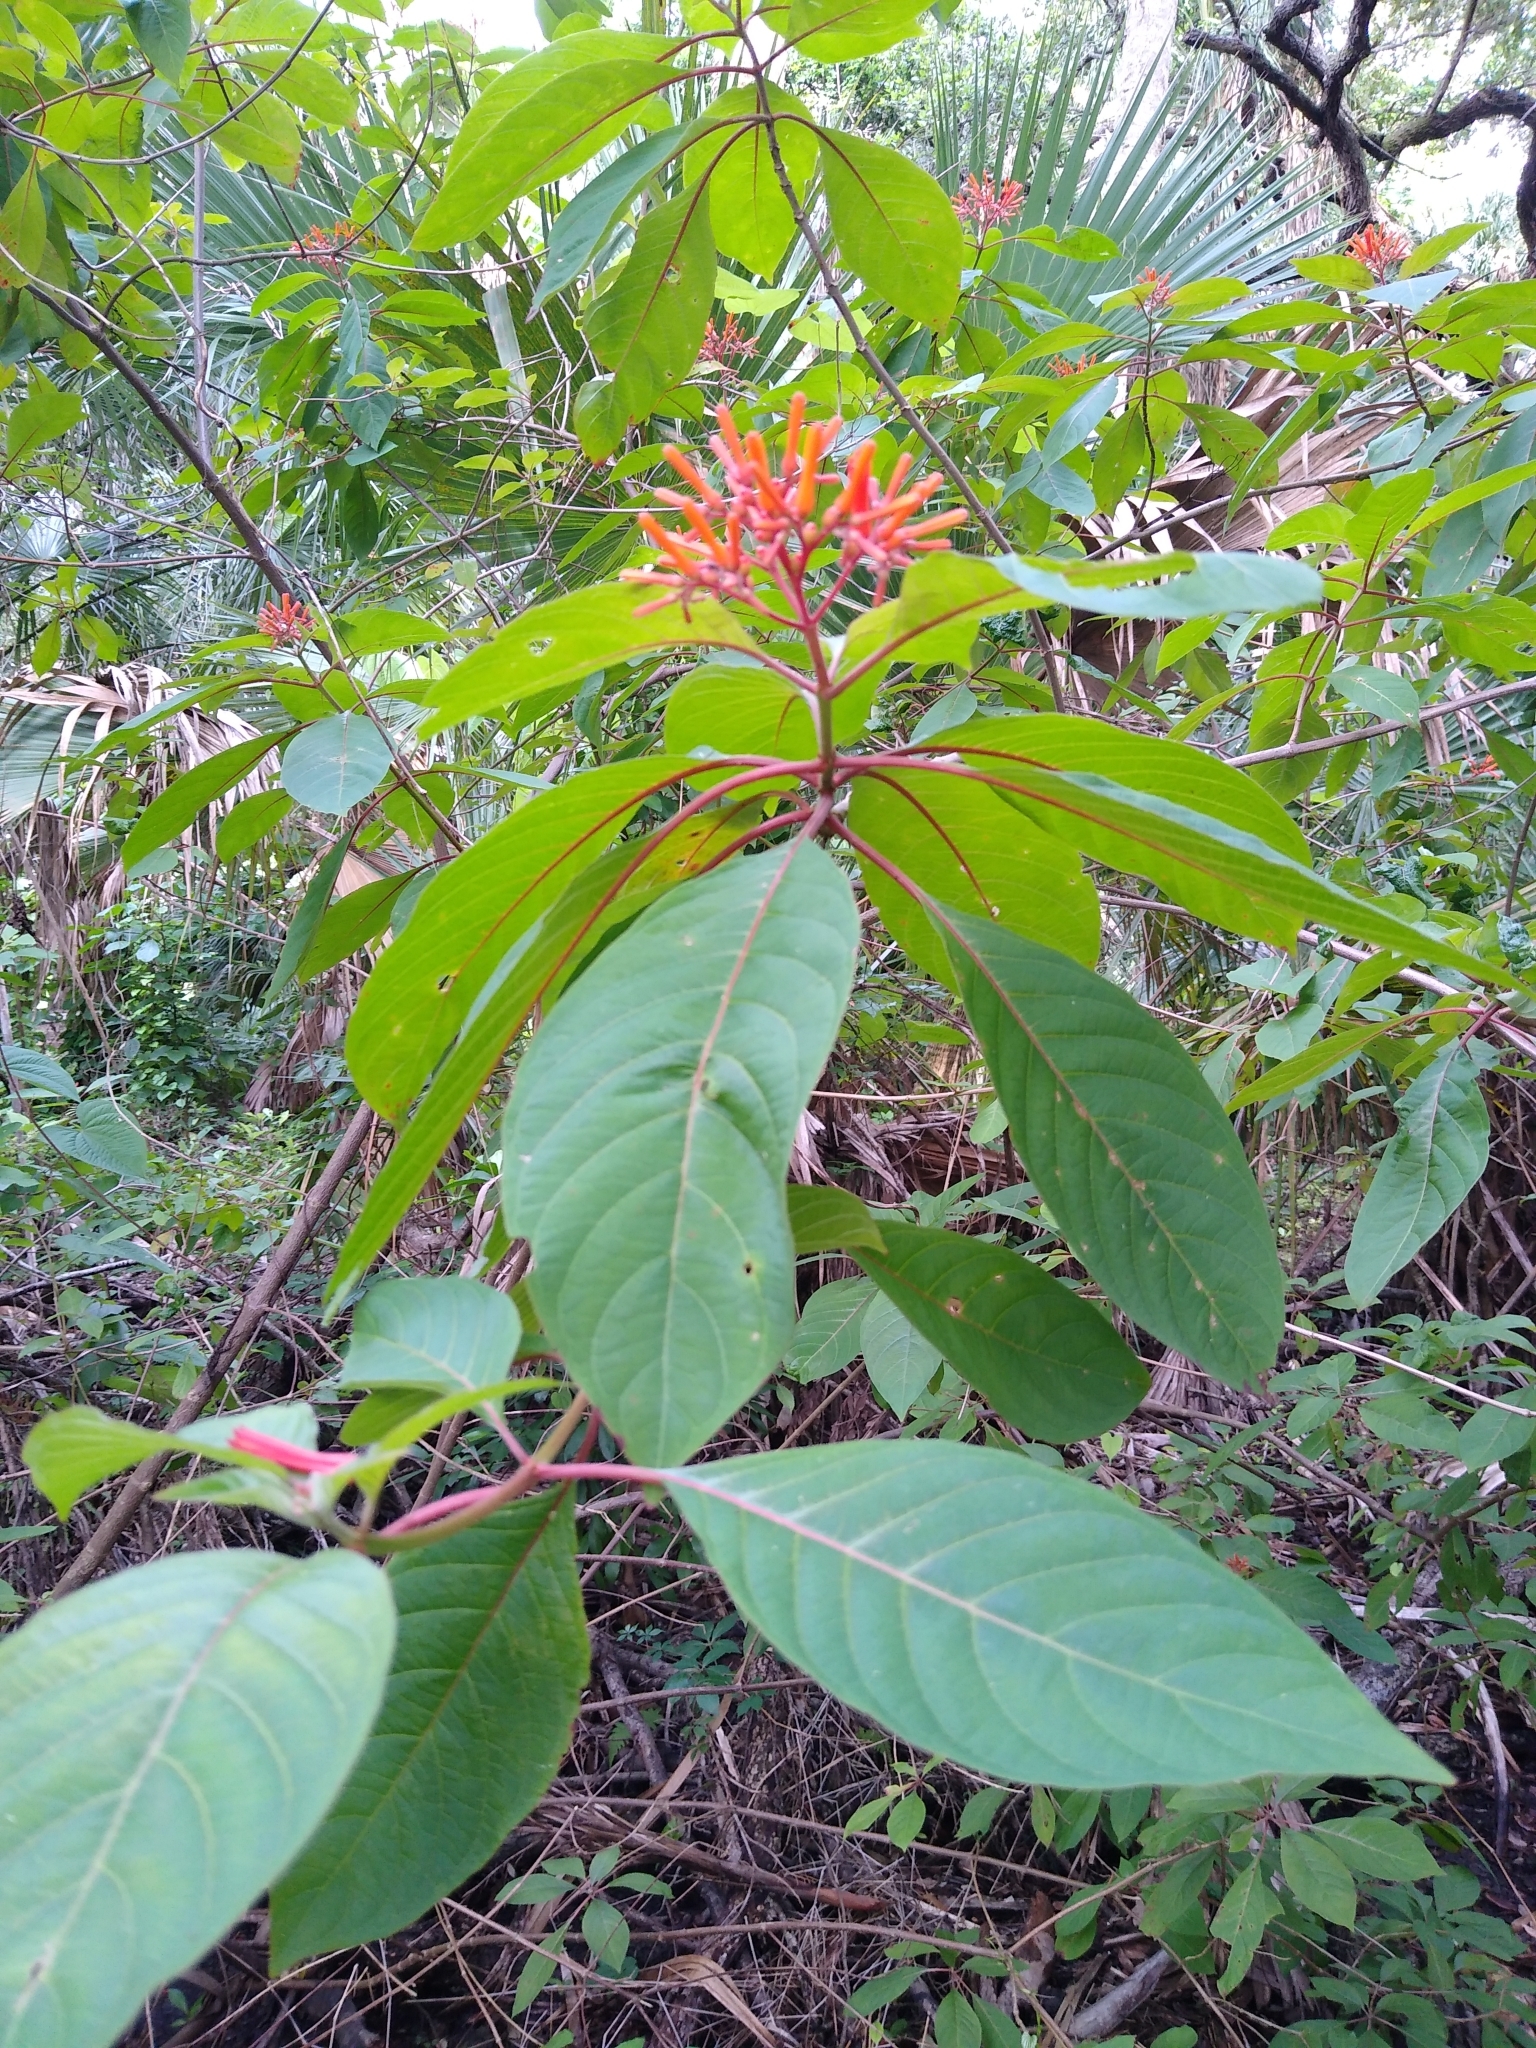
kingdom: Plantae
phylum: Tracheophyta
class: Magnoliopsida
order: Gentianales
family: Rubiaceae
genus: Hamelia
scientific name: Hamelia patens
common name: Redhead
